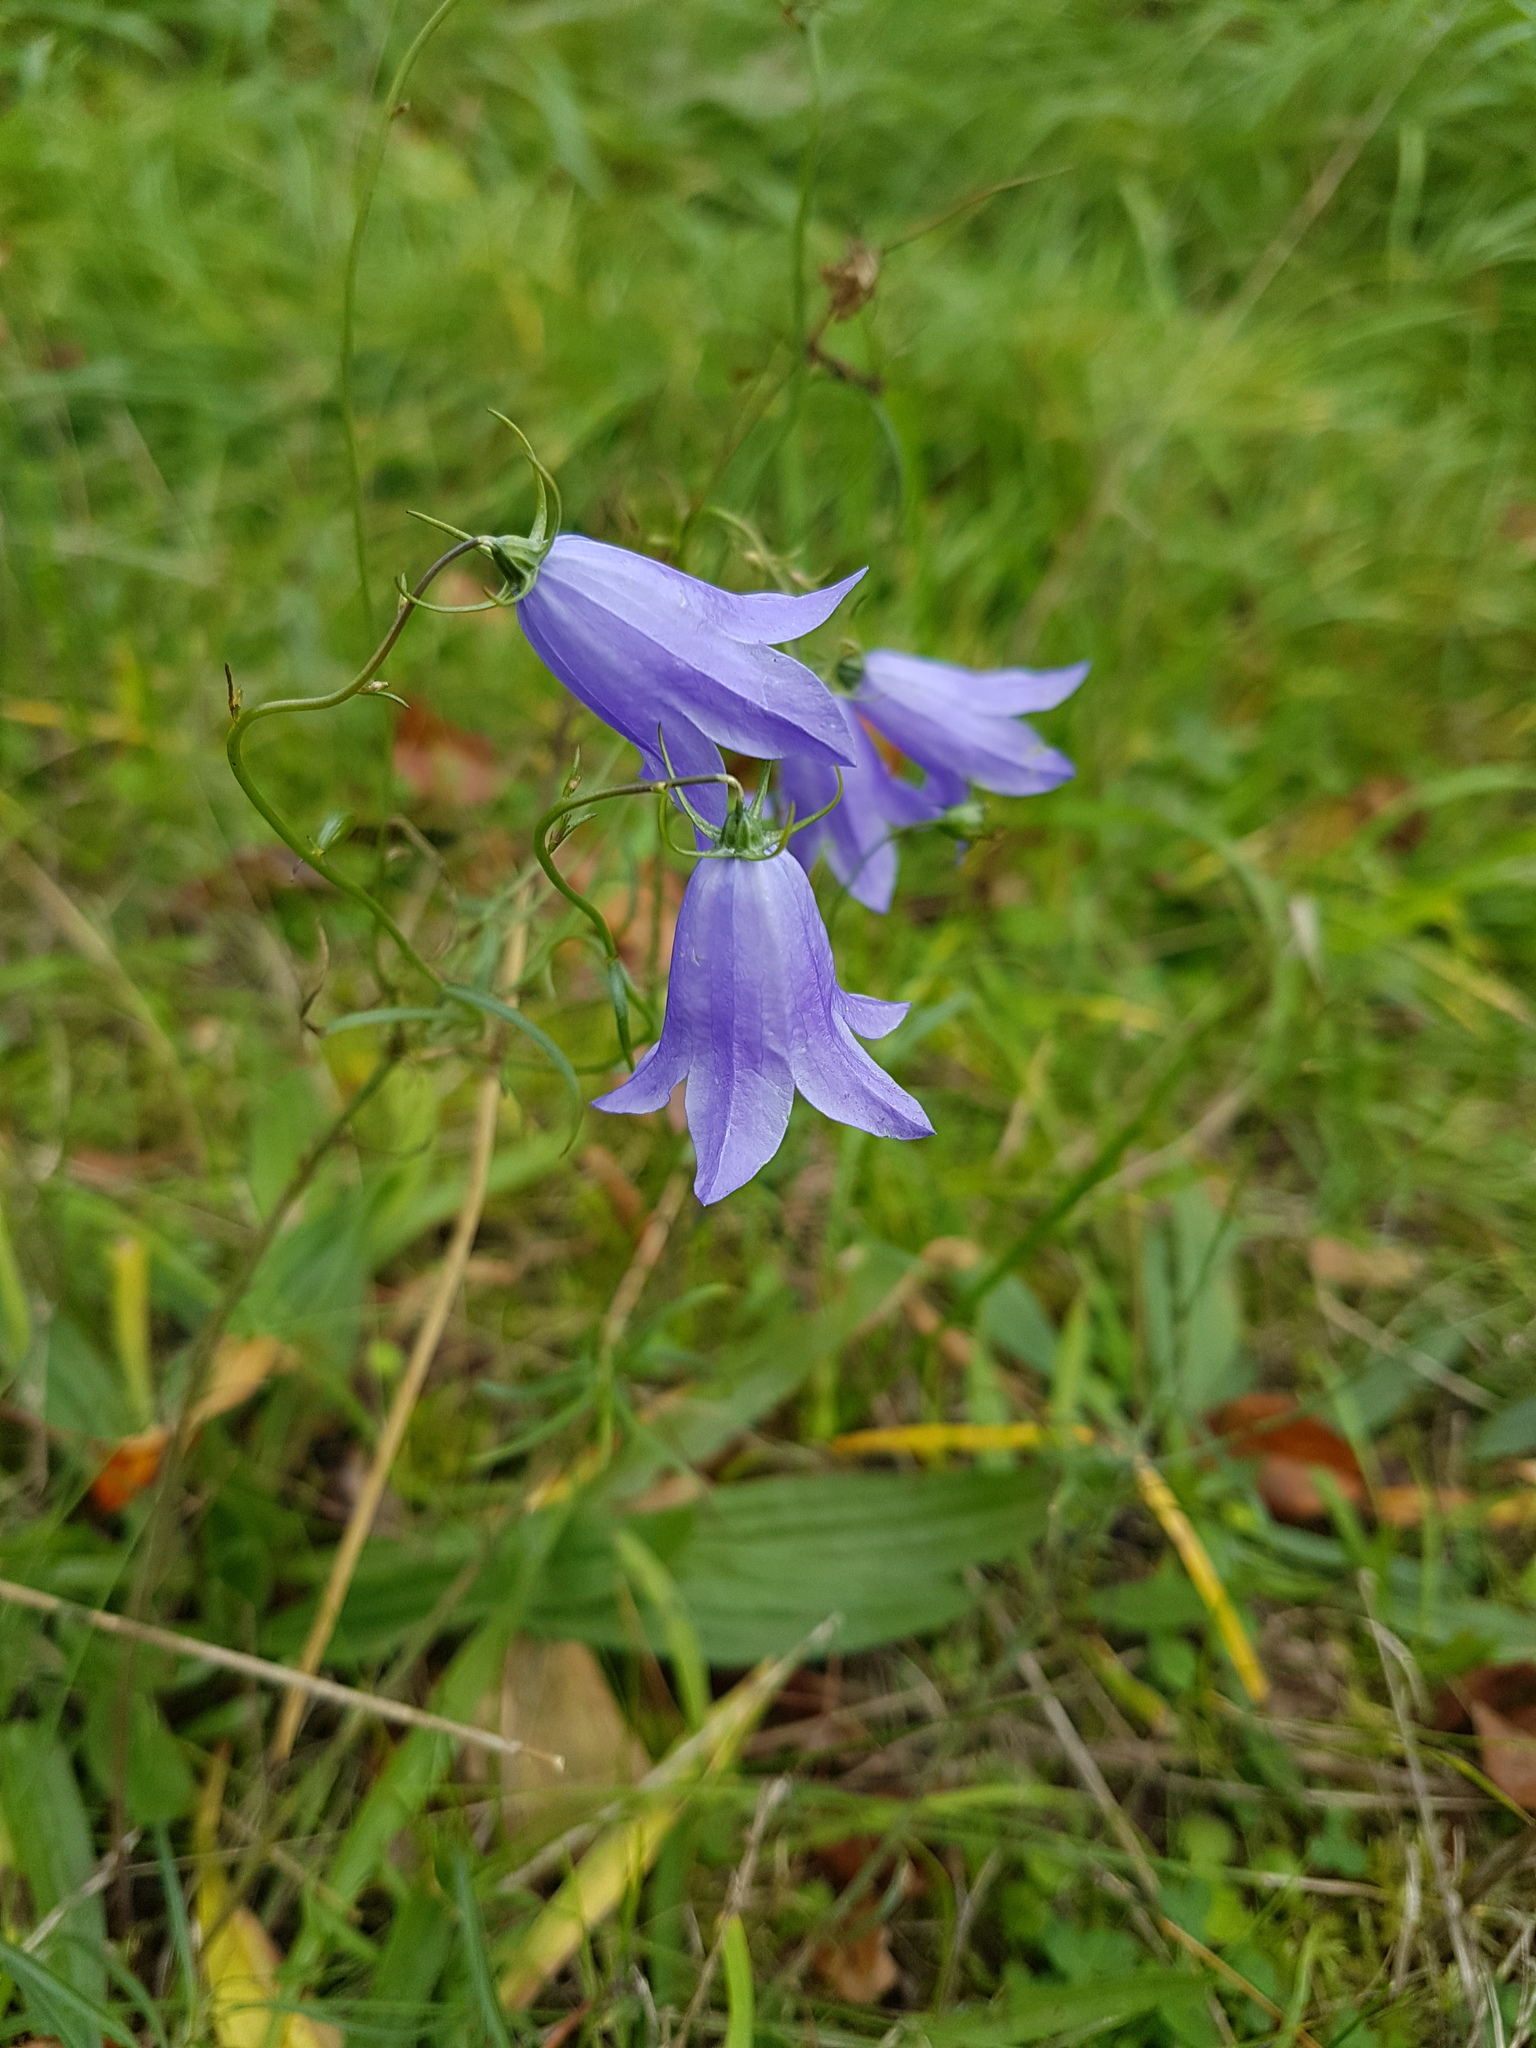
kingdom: Plantae
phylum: Tracheophyta
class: Magnoliopsida
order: Asterales
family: Campanulaceae
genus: Campanula
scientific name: Campanula rotundifolia
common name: Harebell
